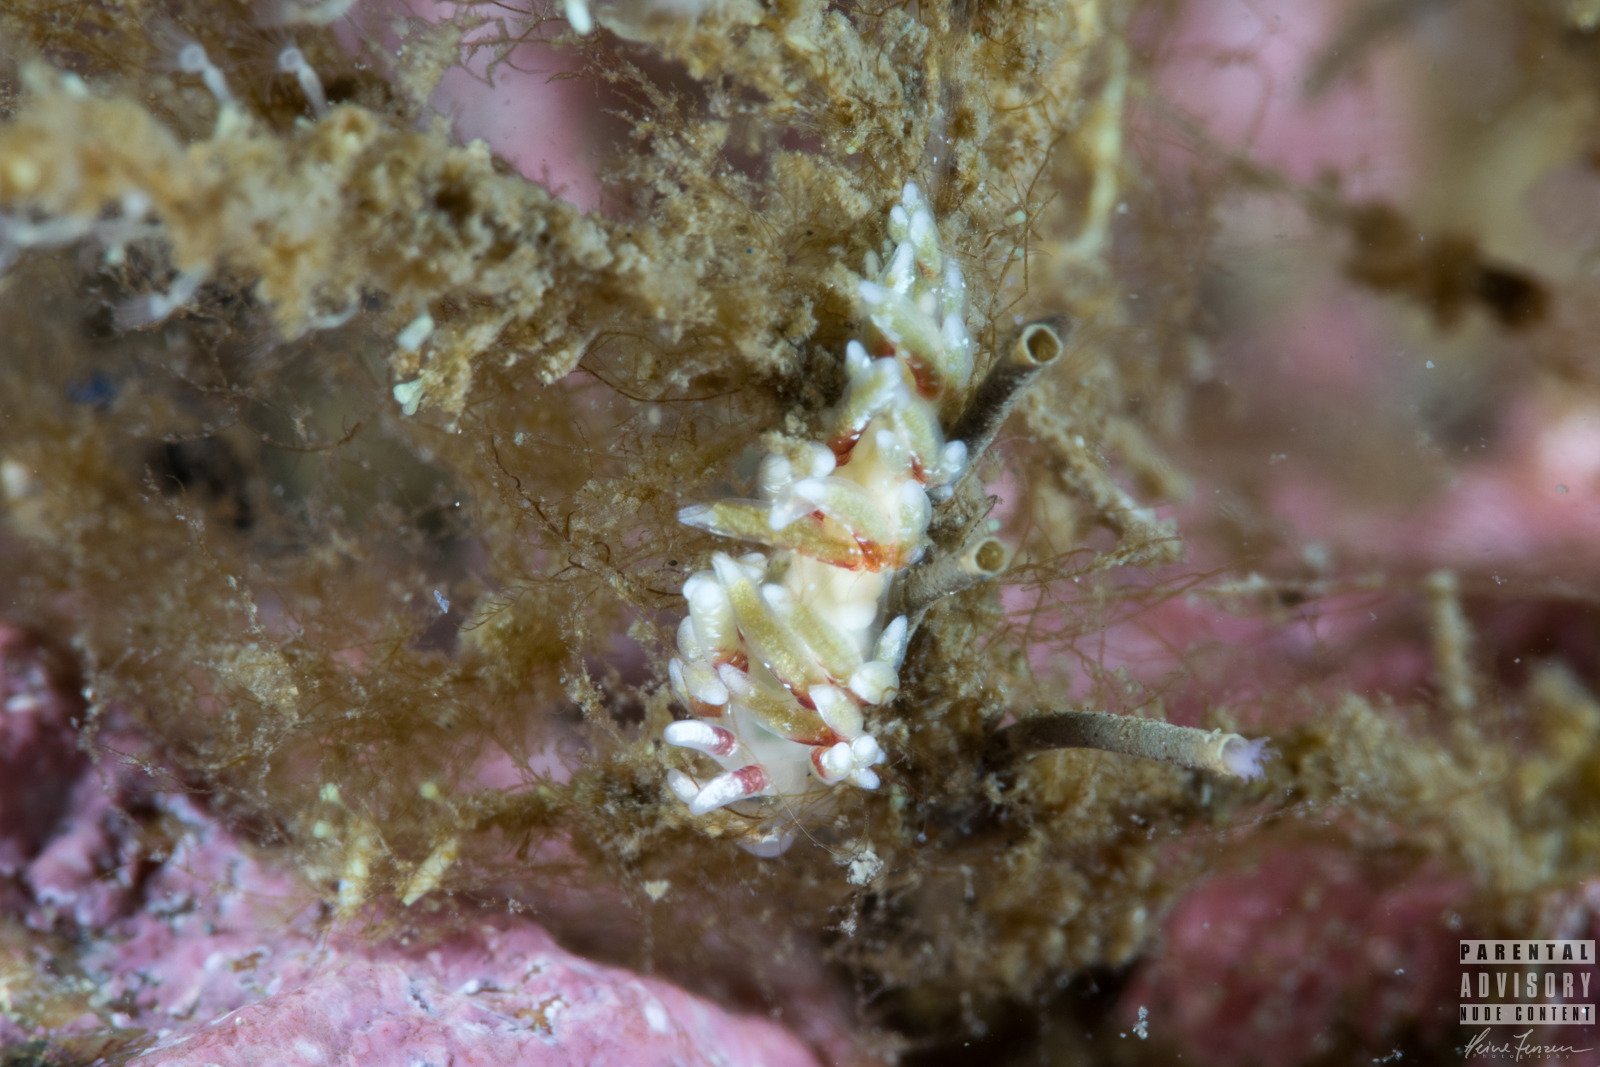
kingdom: Animalia
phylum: Mollusca
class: Gastropoda
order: Nudibranchia
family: Trinchesiidae
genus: Rubramoena
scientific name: Rubramoena rubescens
